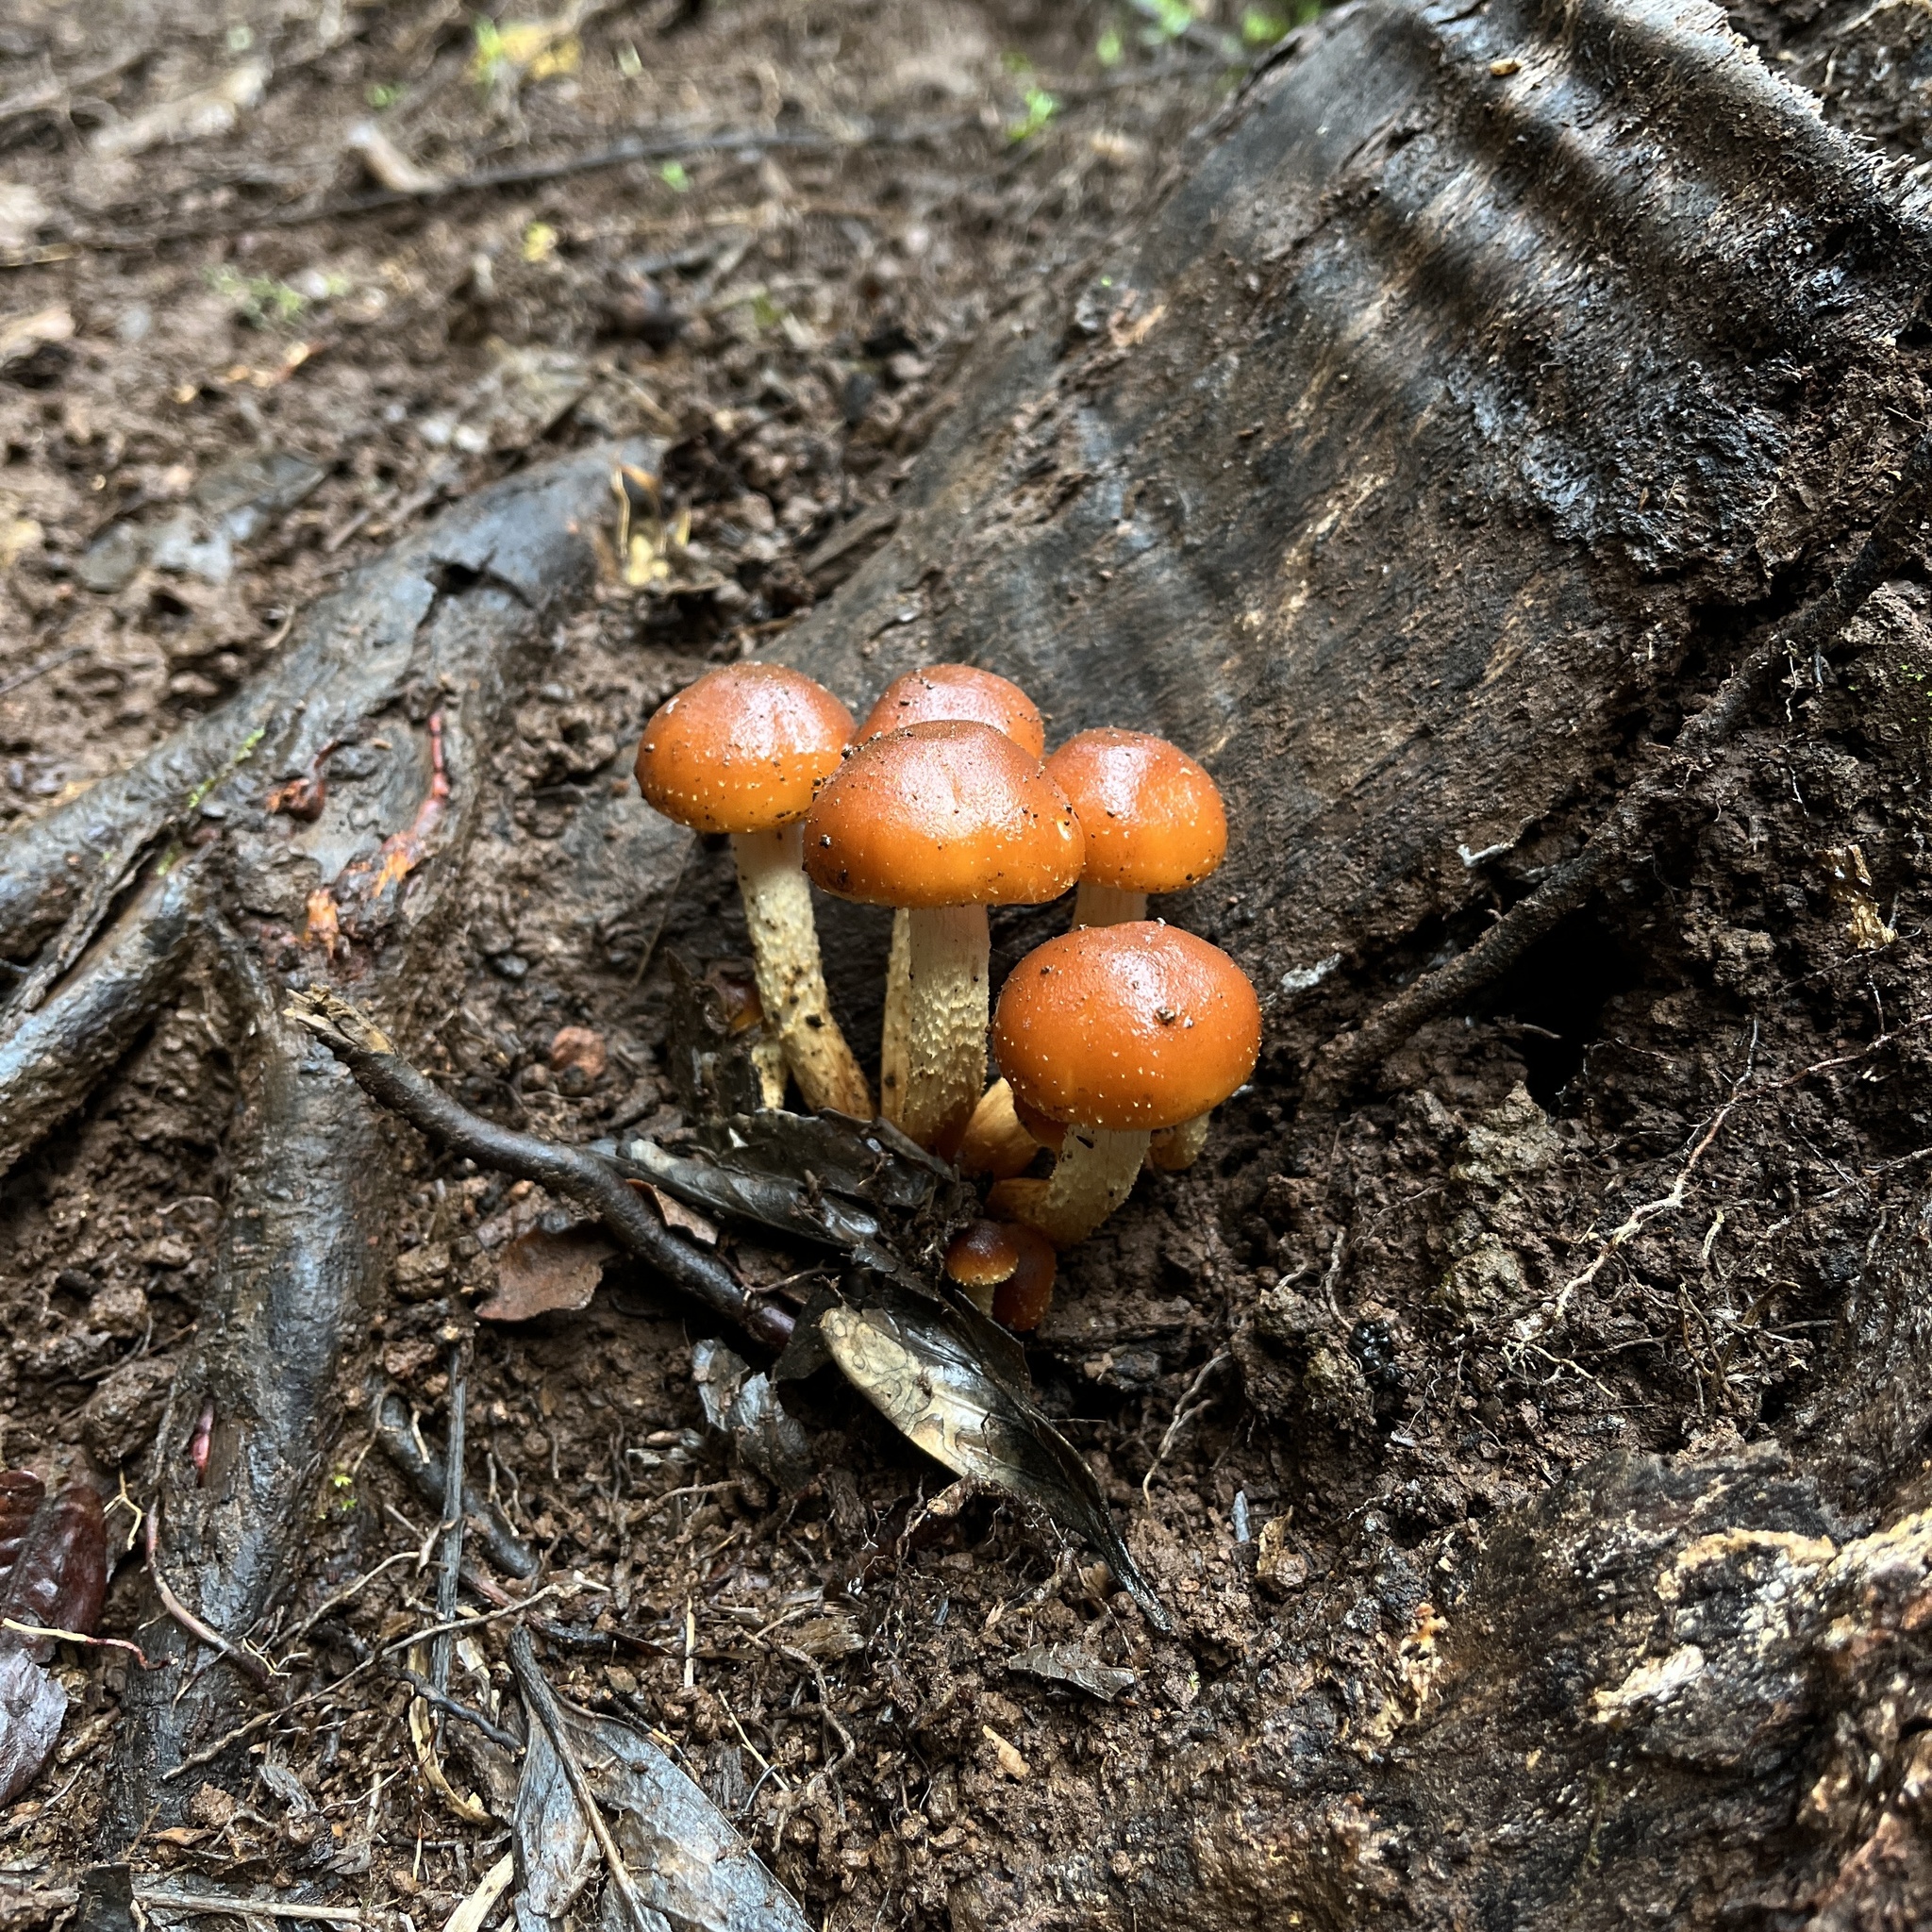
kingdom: Fungi
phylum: Basidiomycota
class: Agaricomycetes
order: Agaricales
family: Strophariaceae
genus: Hypholoma
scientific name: Hypholoma frowardii
